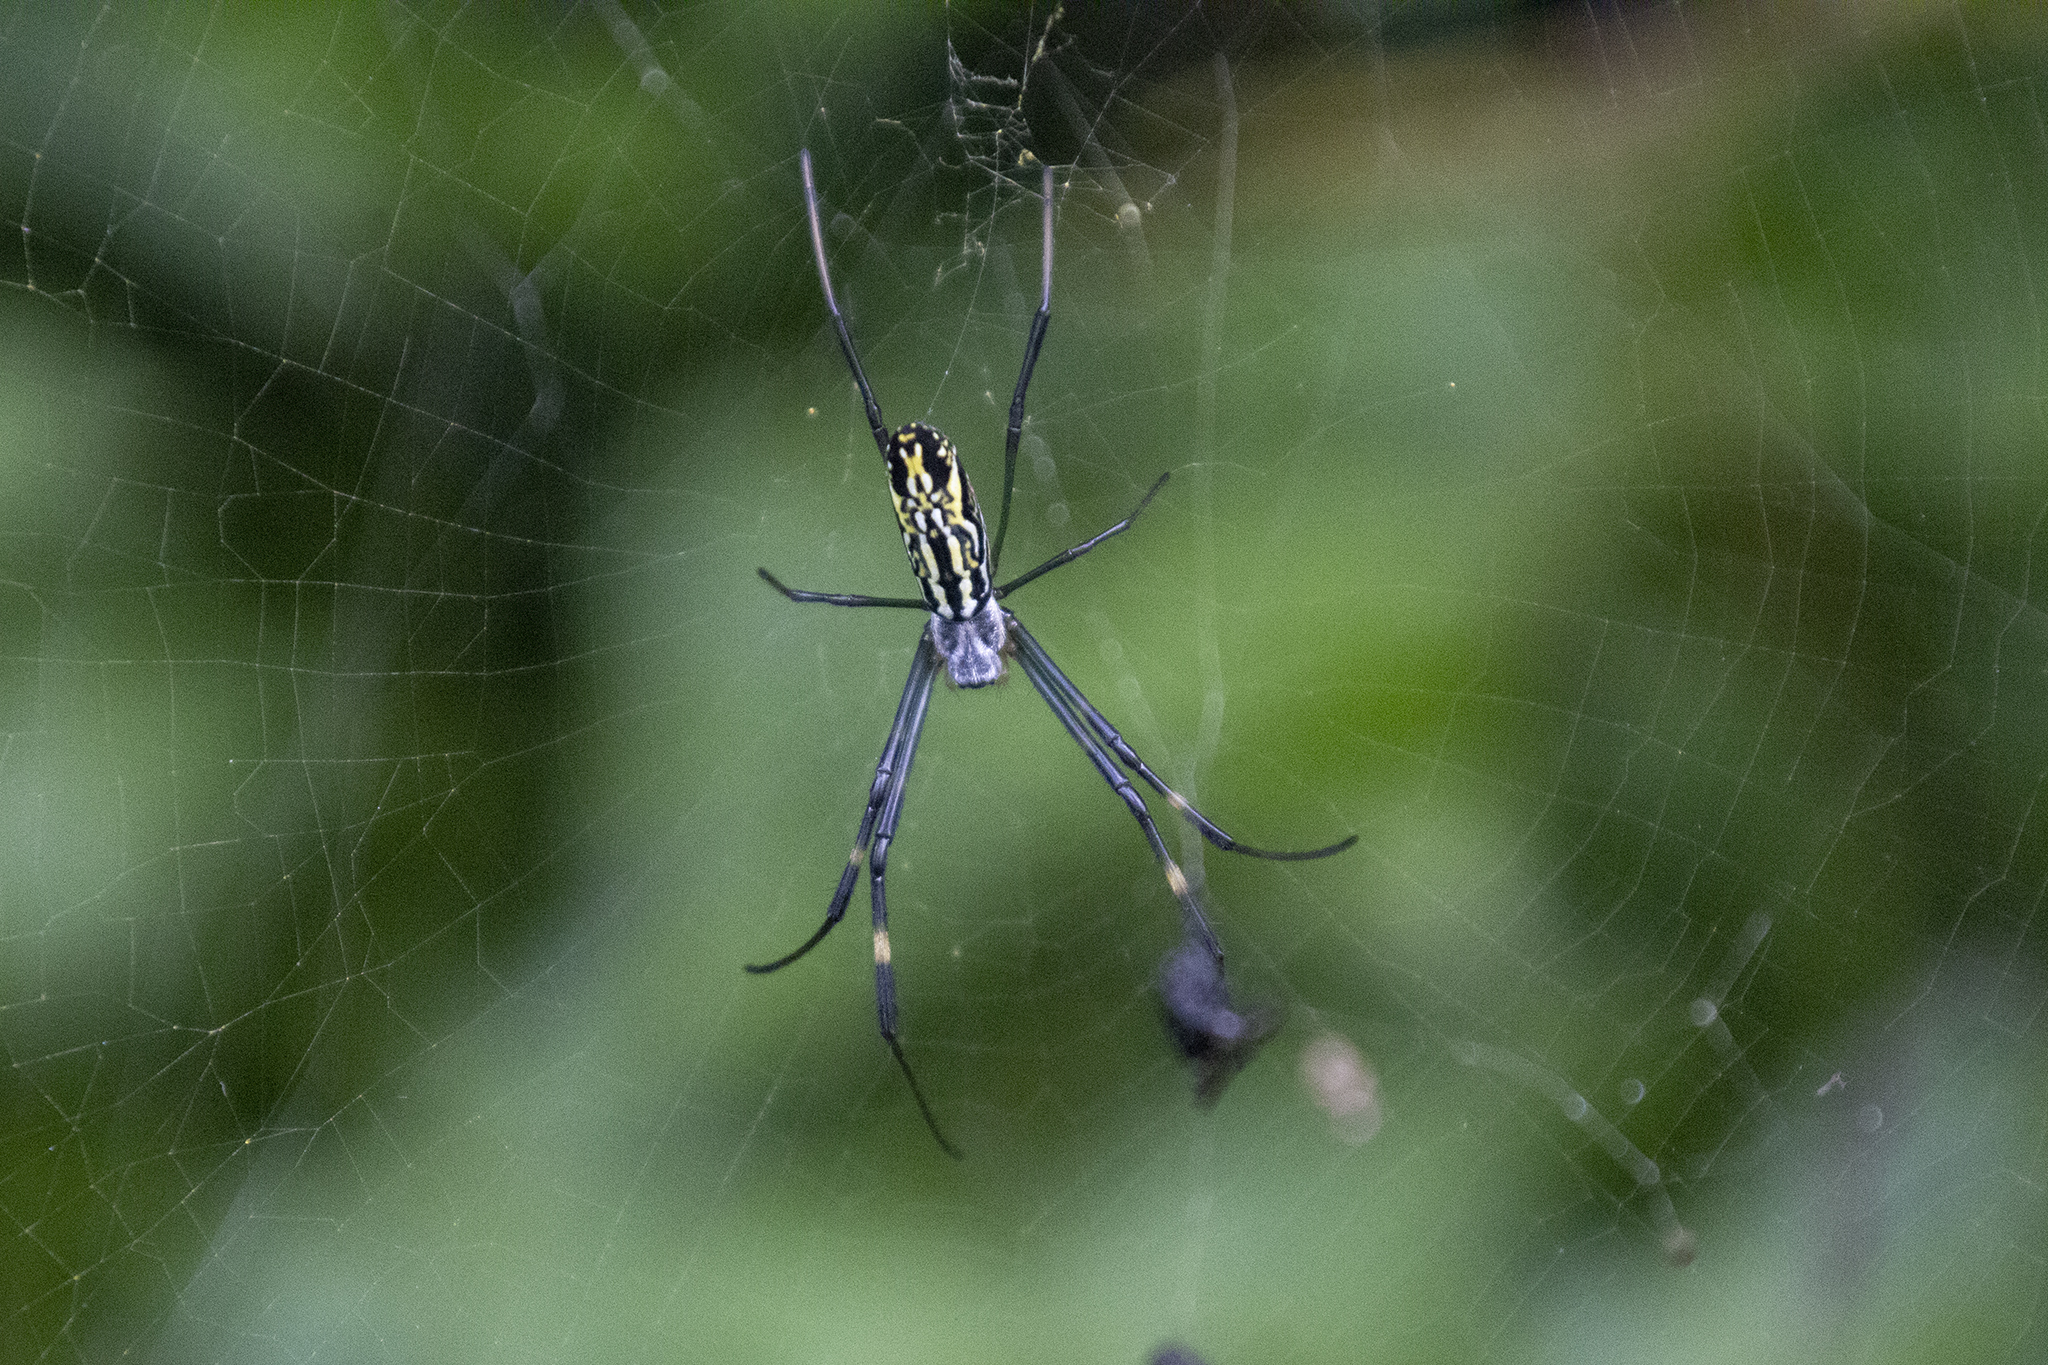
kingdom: Animalia
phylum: Arthropoda
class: Arachnida
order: Araneae
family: Araneidae
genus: Trichonephila
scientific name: Trichonephila clavata
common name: Jorō spider
